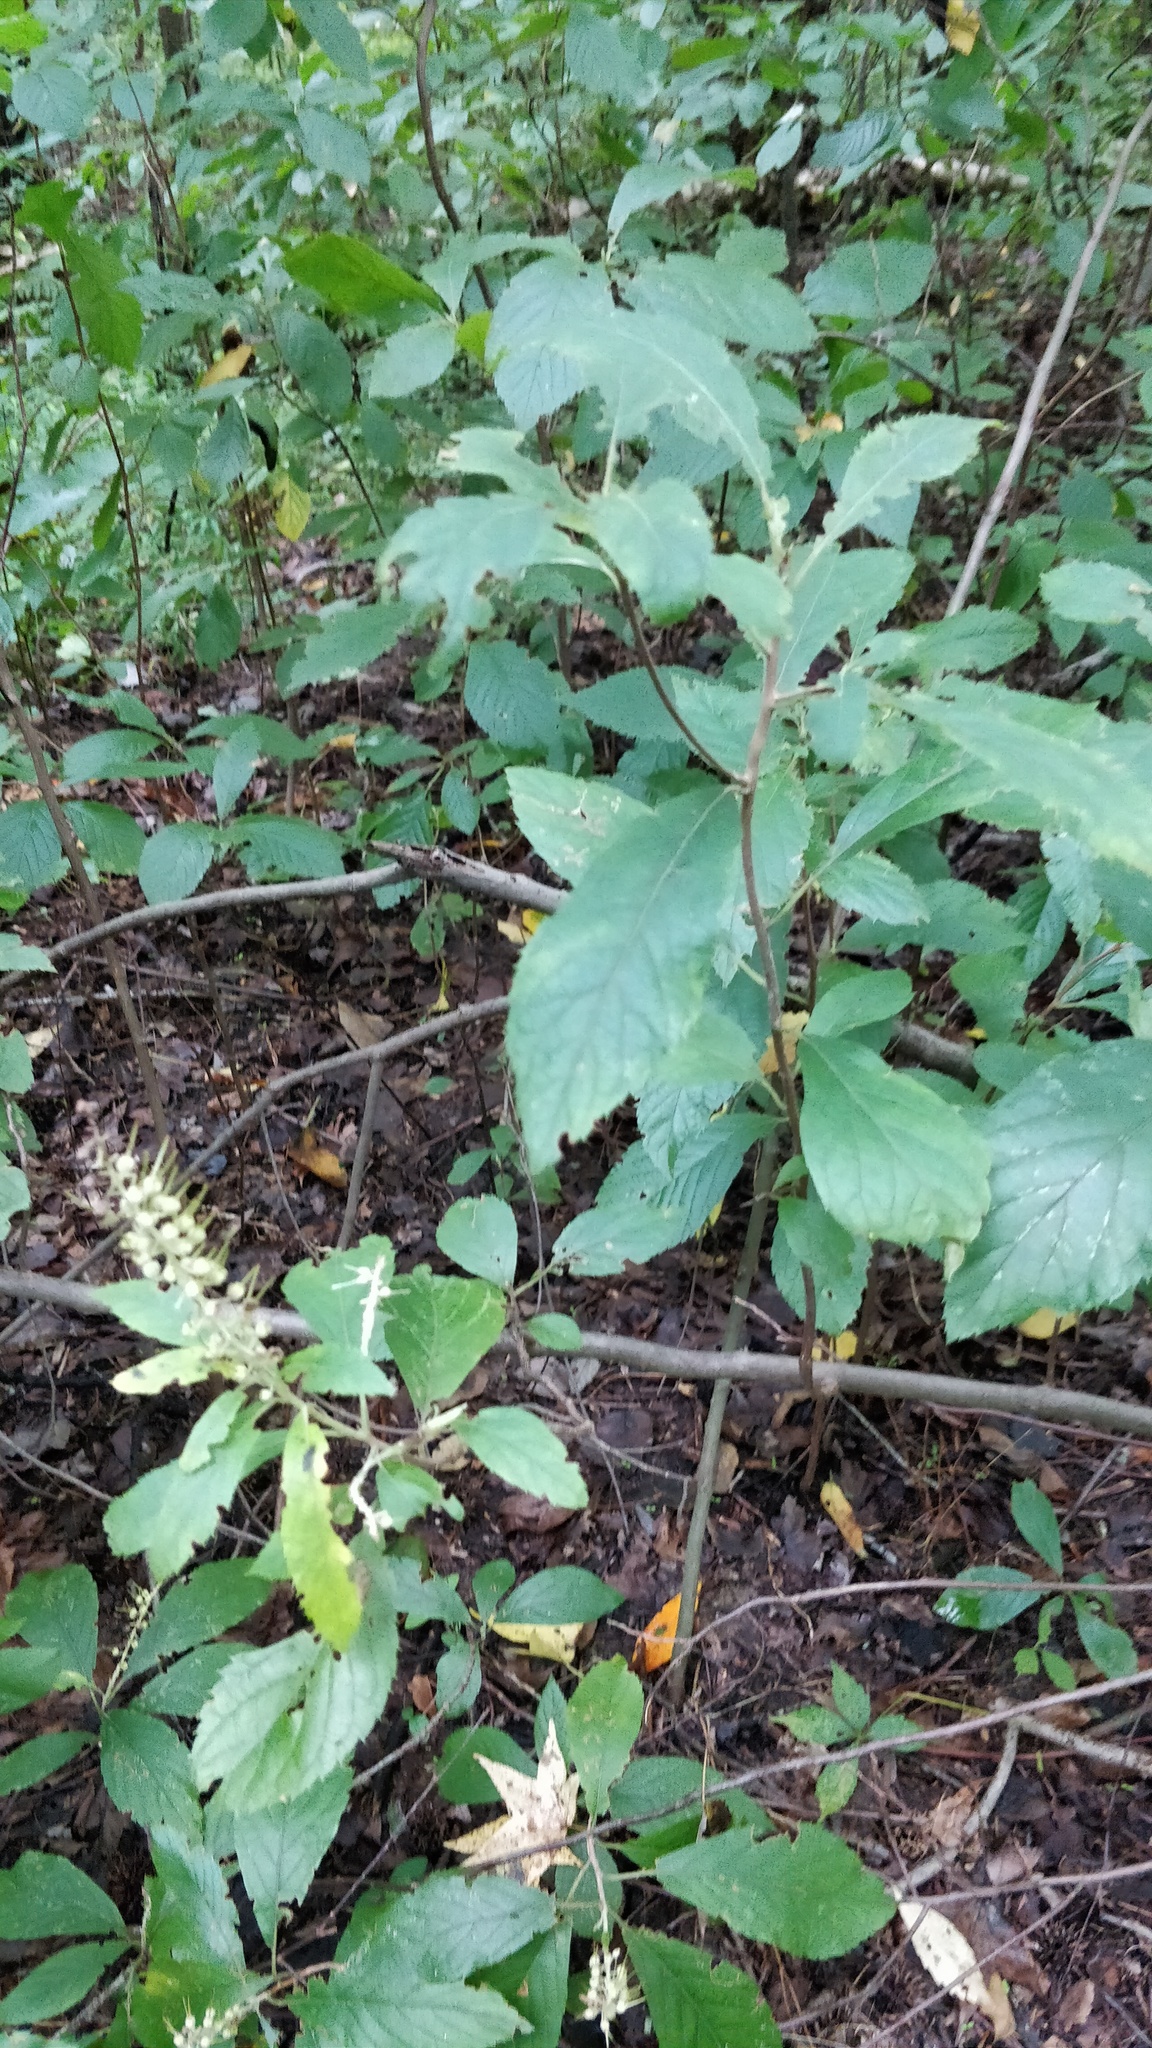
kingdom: Plantae
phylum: Tracheophyta
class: Magnoliopsida
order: Ericales
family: Clethraceae
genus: Clethra
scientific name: Clethra alnifolia
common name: Sweet pepperbush
